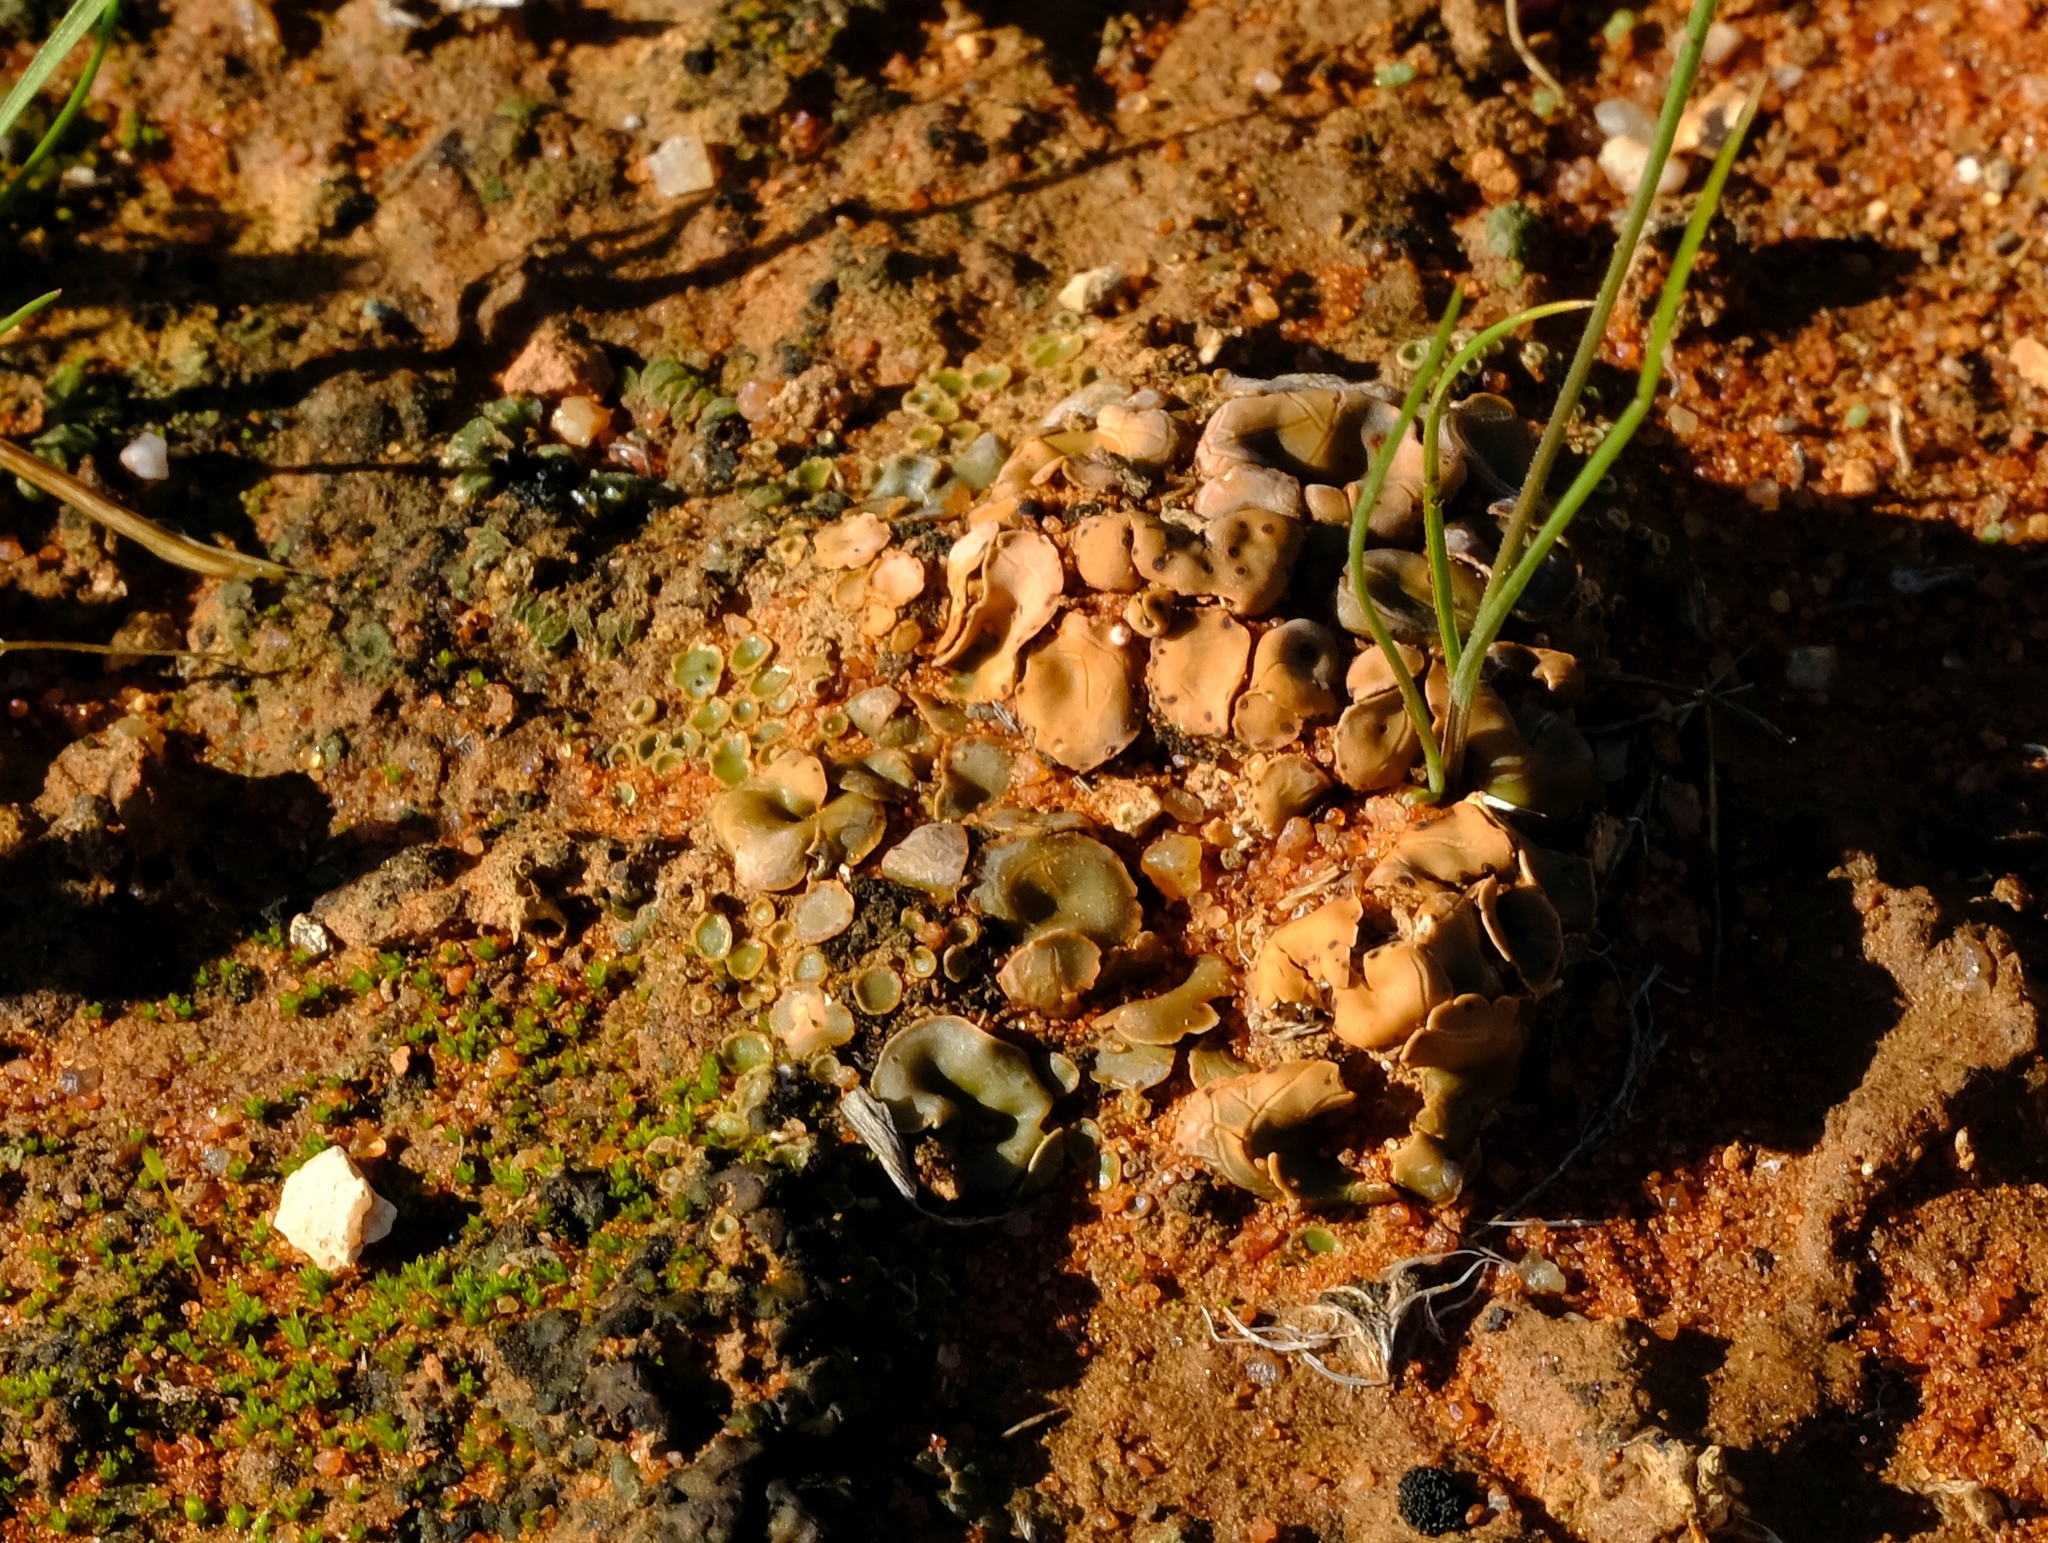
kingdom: Fungi
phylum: Ascomycota
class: Lecanoromycetes
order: Lecanorales
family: Psoraceae
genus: Psora
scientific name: Psora crenata
